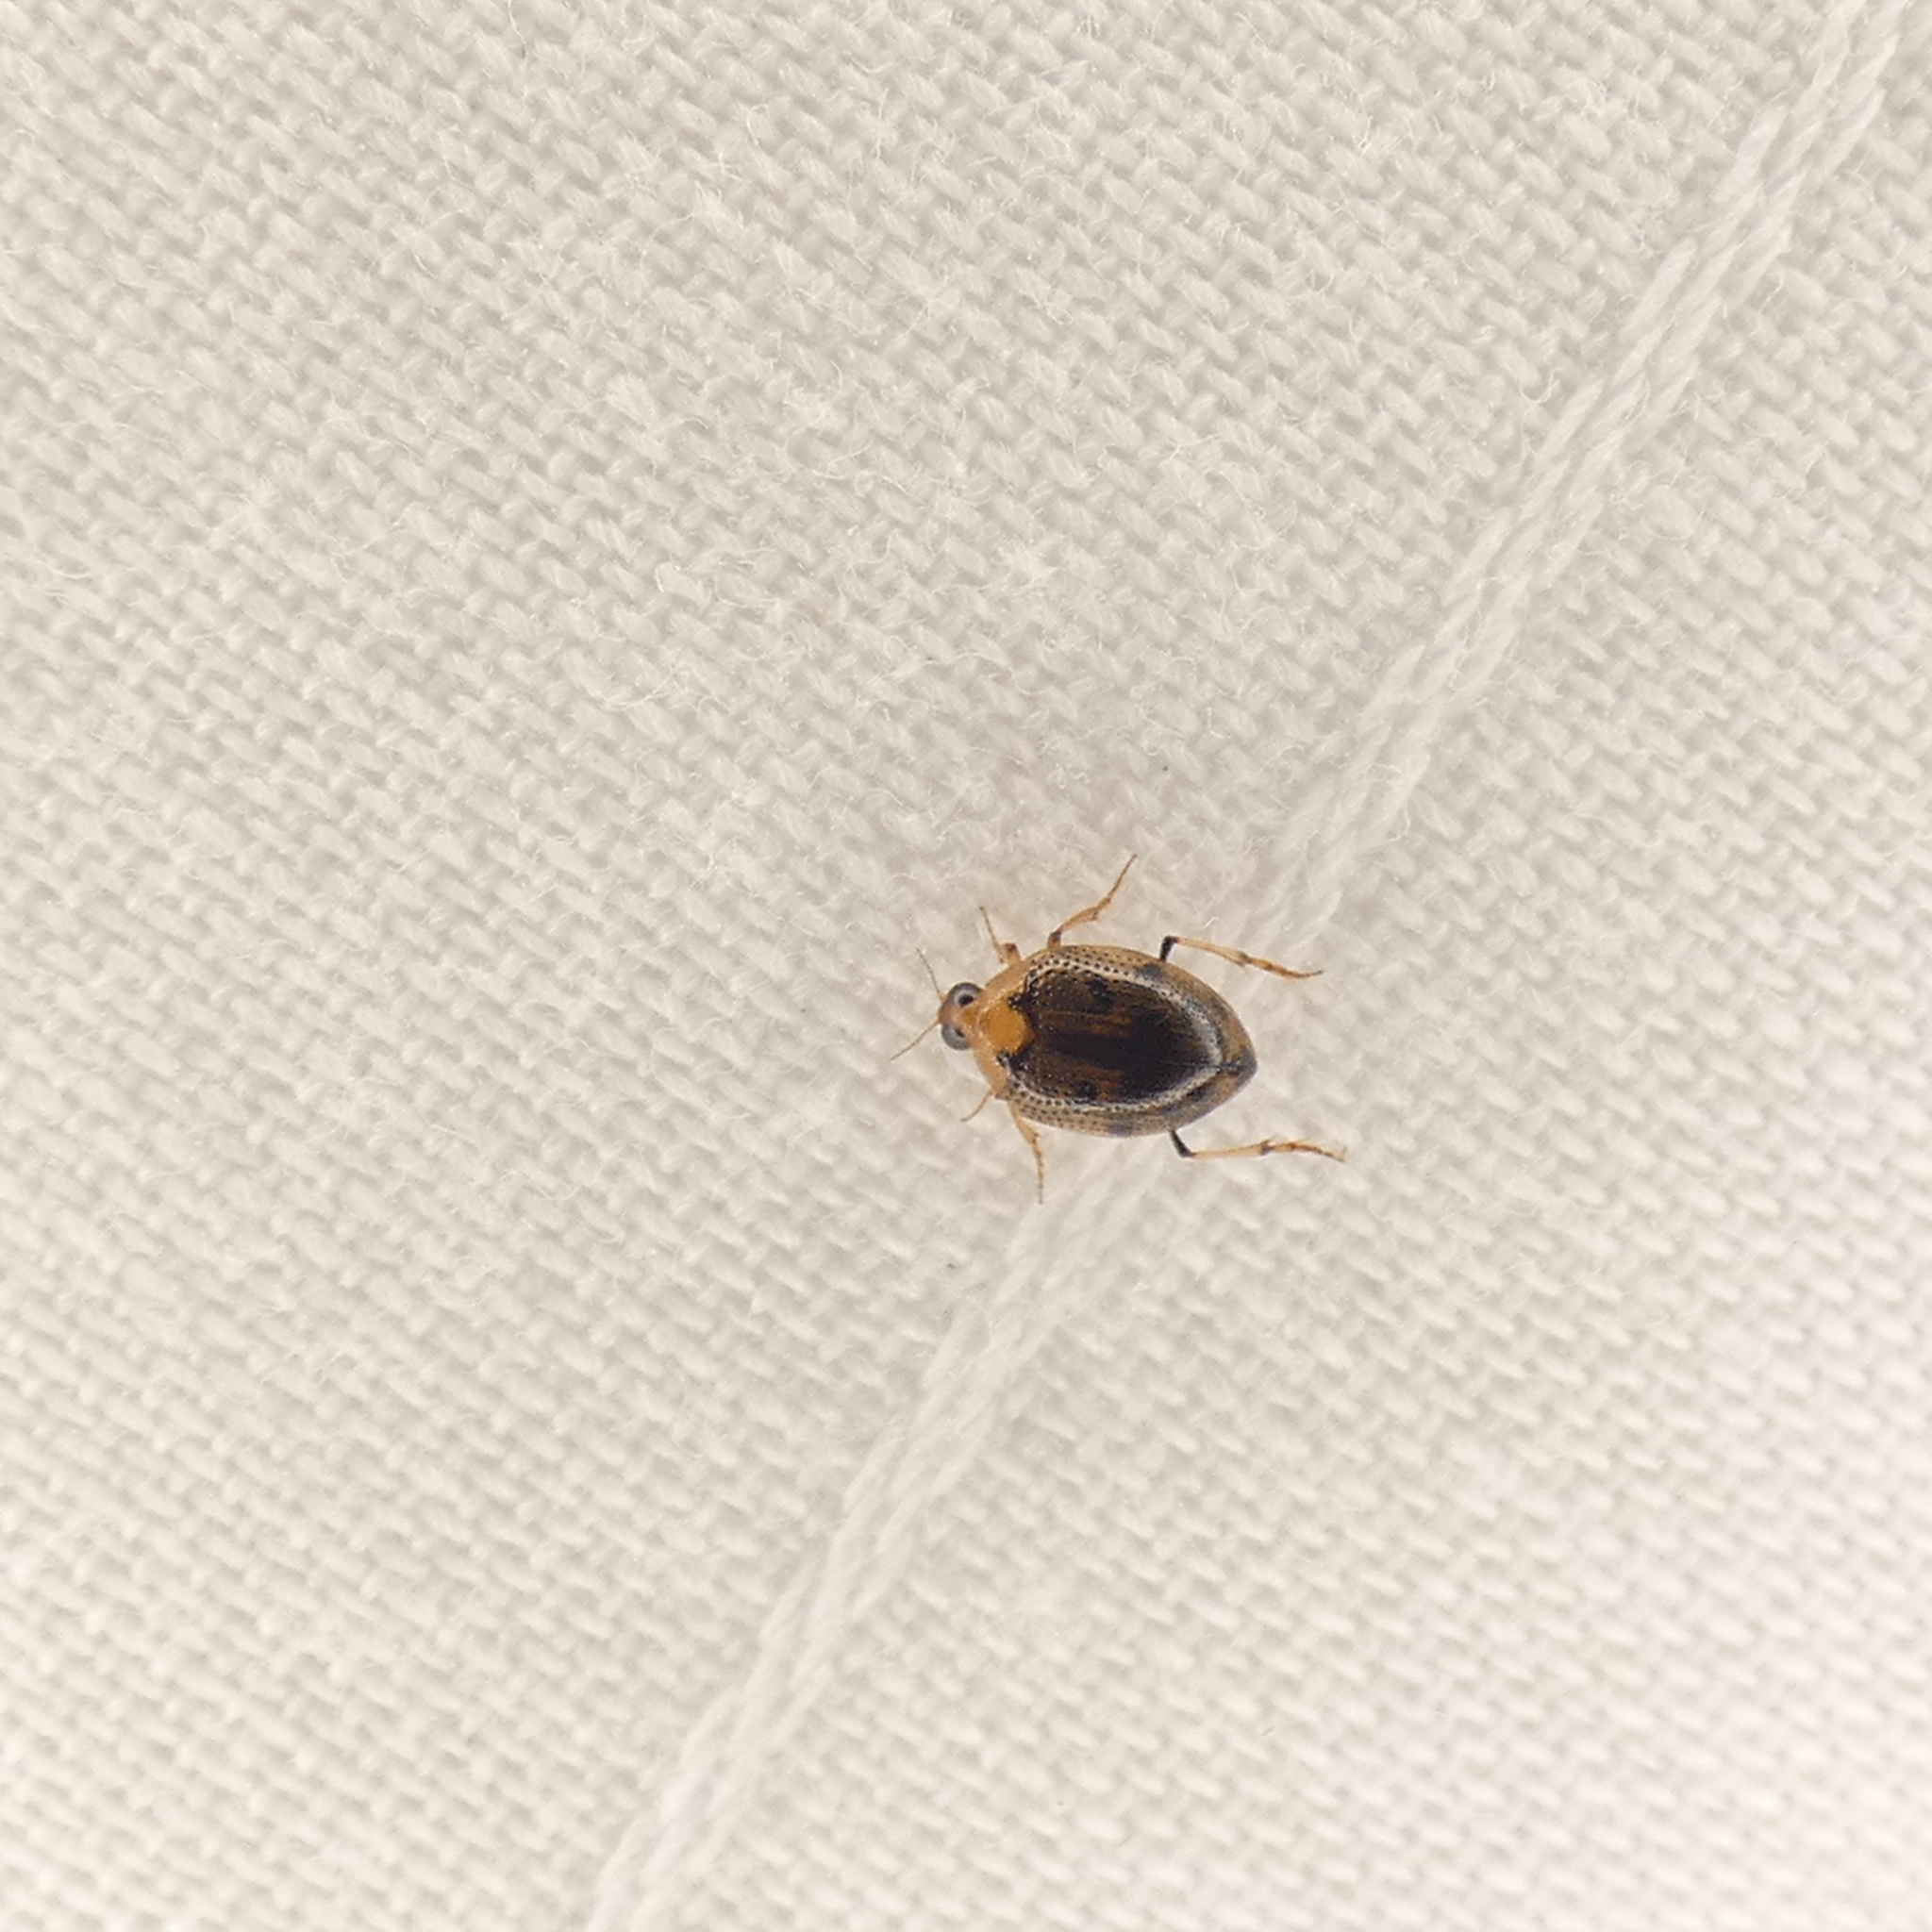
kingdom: Animalia
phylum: Arthropoda
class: Insecta
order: Coleoptera
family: Haliplidae
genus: Peltodytes
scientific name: Peltodytes
